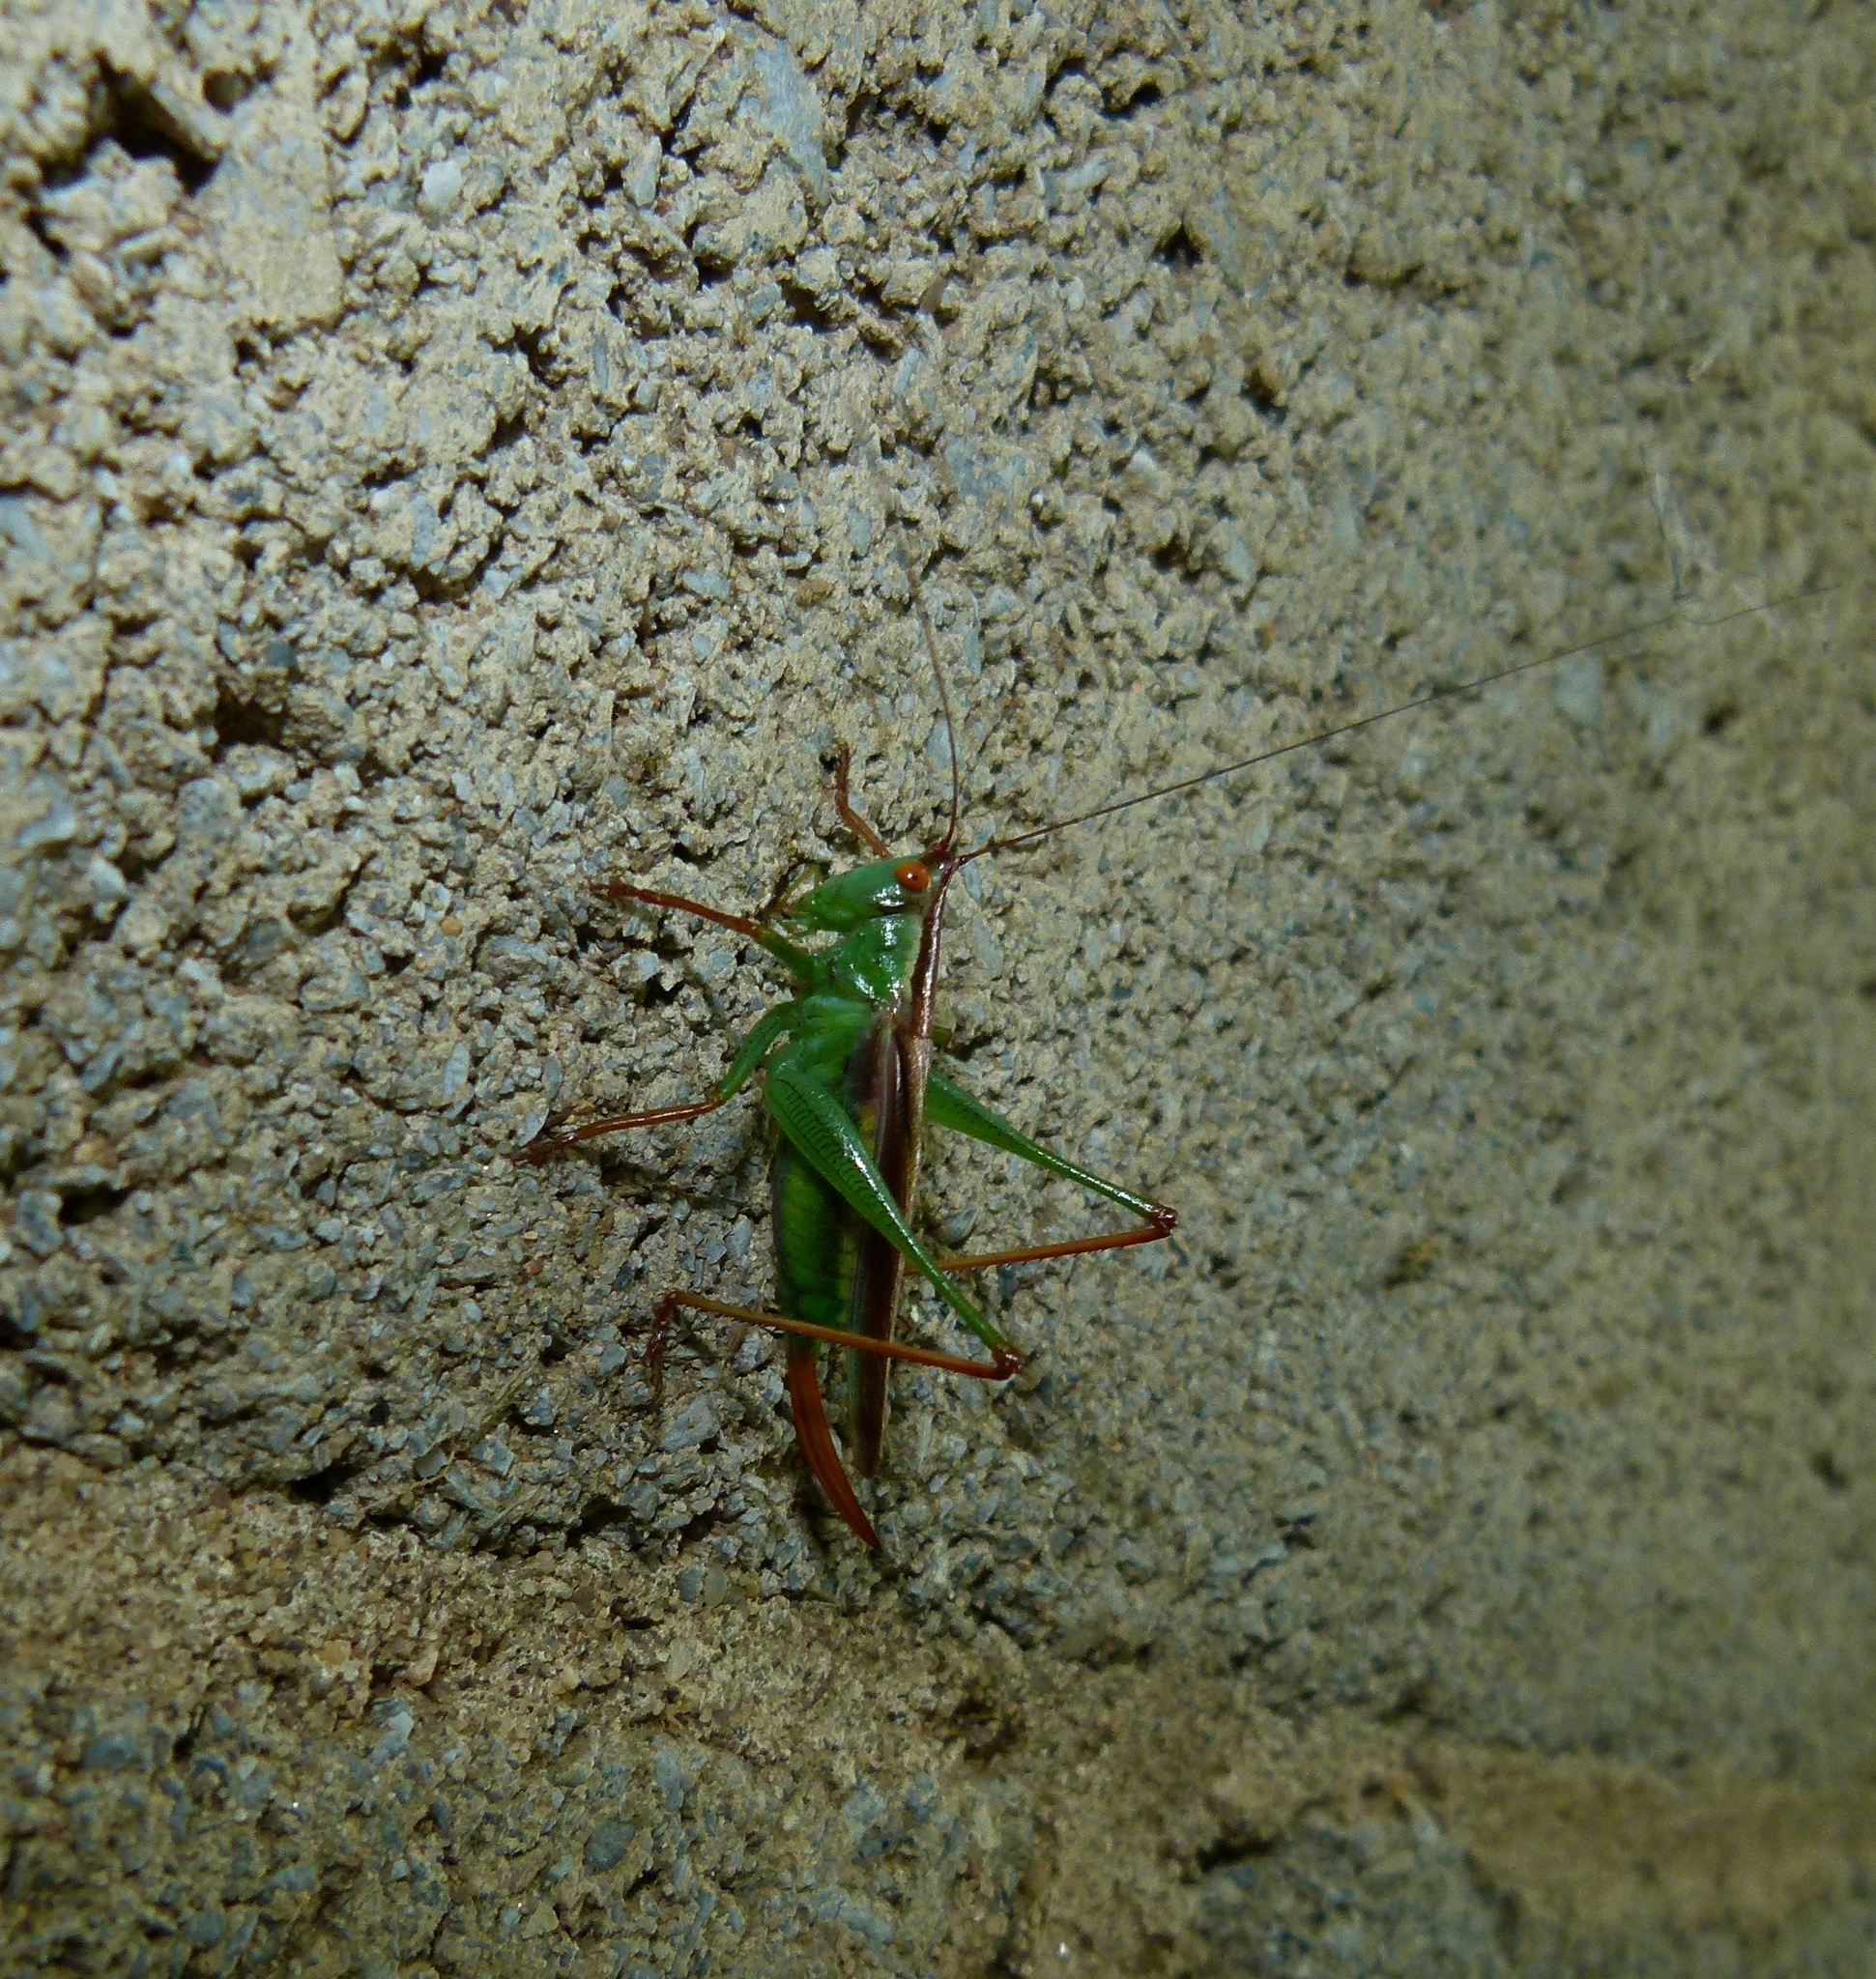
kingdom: Animalia
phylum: Arthropoda
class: Insecta
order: Orthoptera
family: Tettigoniidae
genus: Orchelimum
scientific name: Orchelimum minor
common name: Lesser pine meadow katydid
